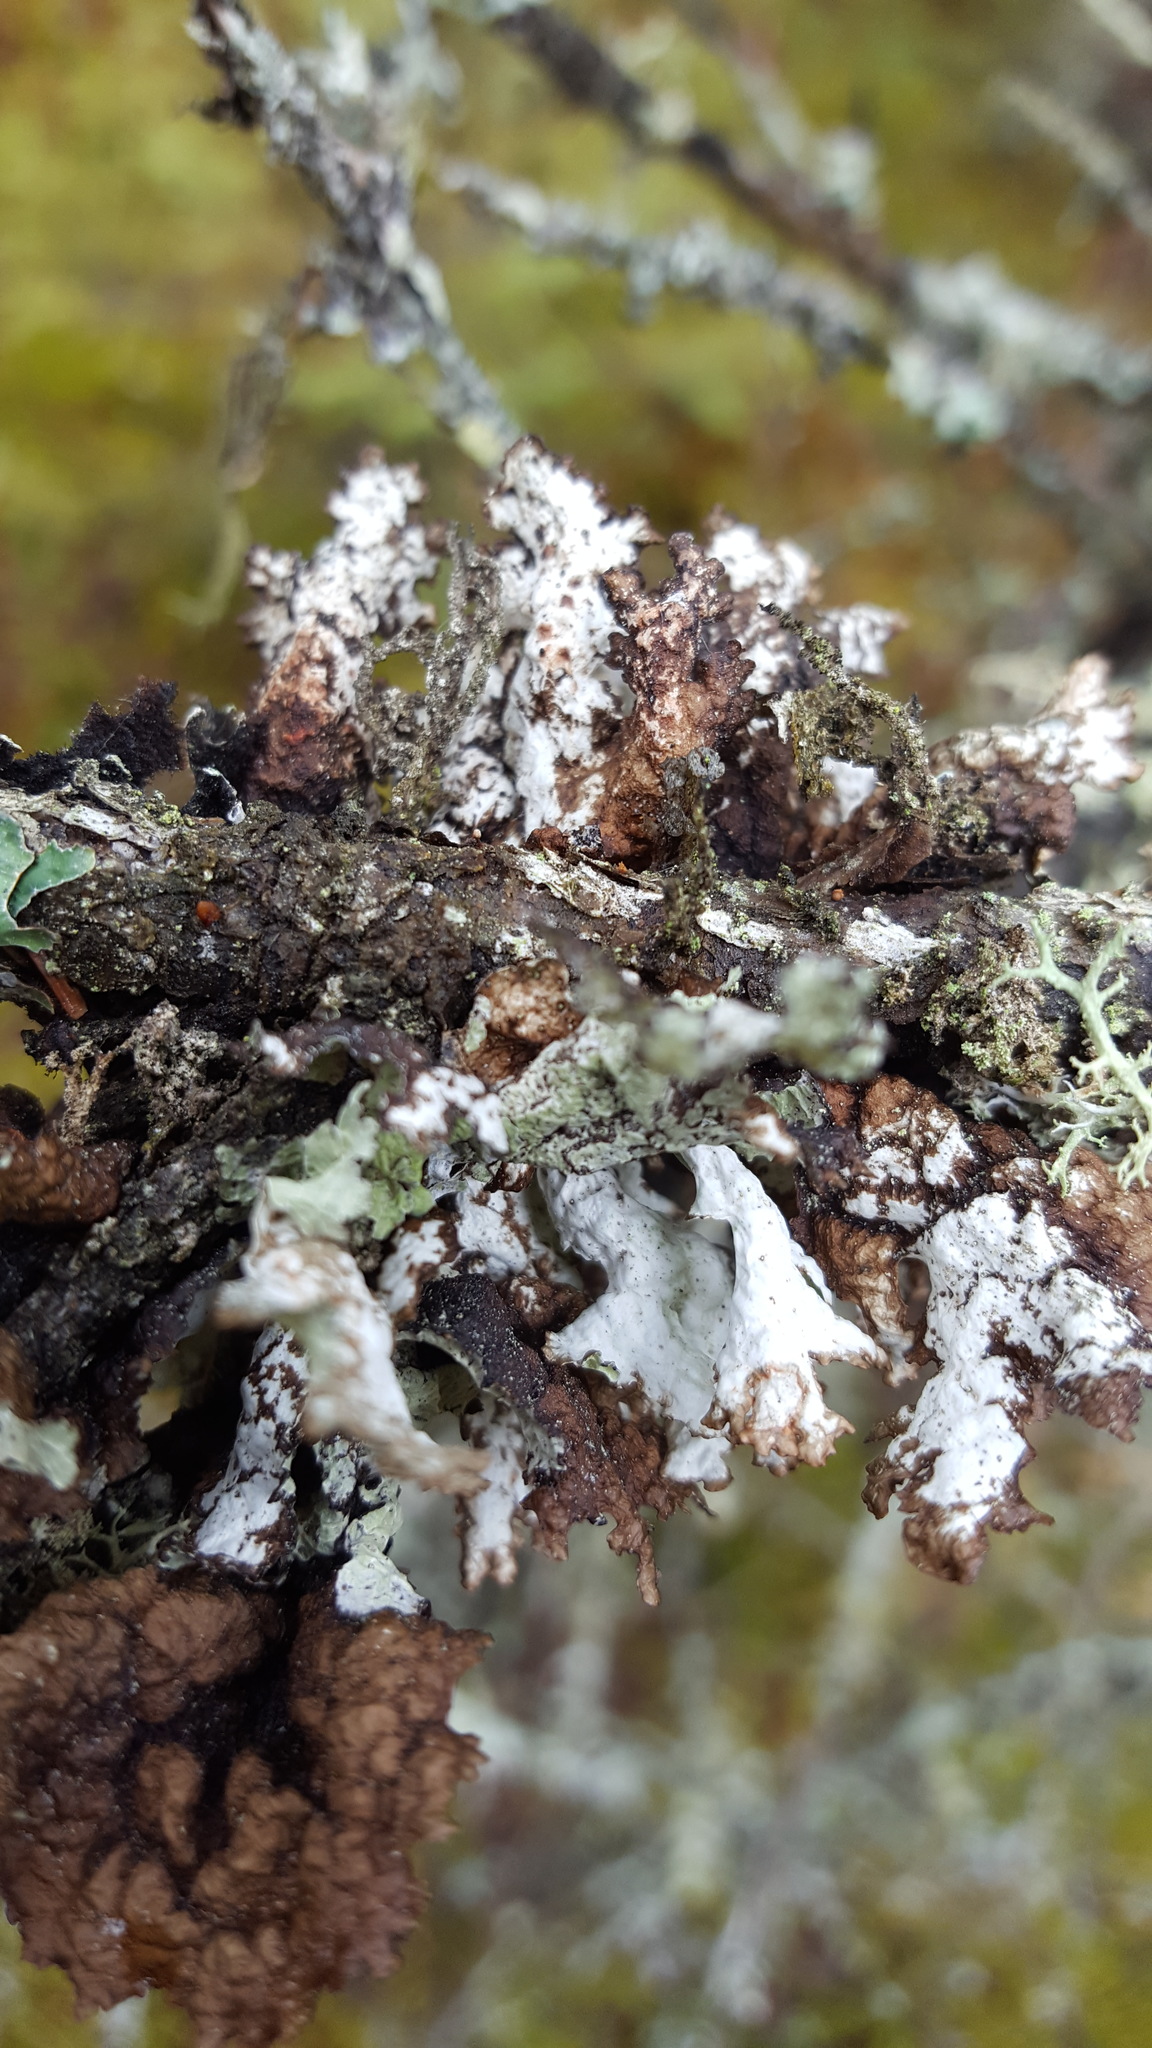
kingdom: Fungi
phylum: Ascomycota
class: Lecanoromycetes
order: Lecanorales
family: Parmeliaceae
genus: Platismatia
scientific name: Platismatia tuckermanii
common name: Crumpled rag lichen
